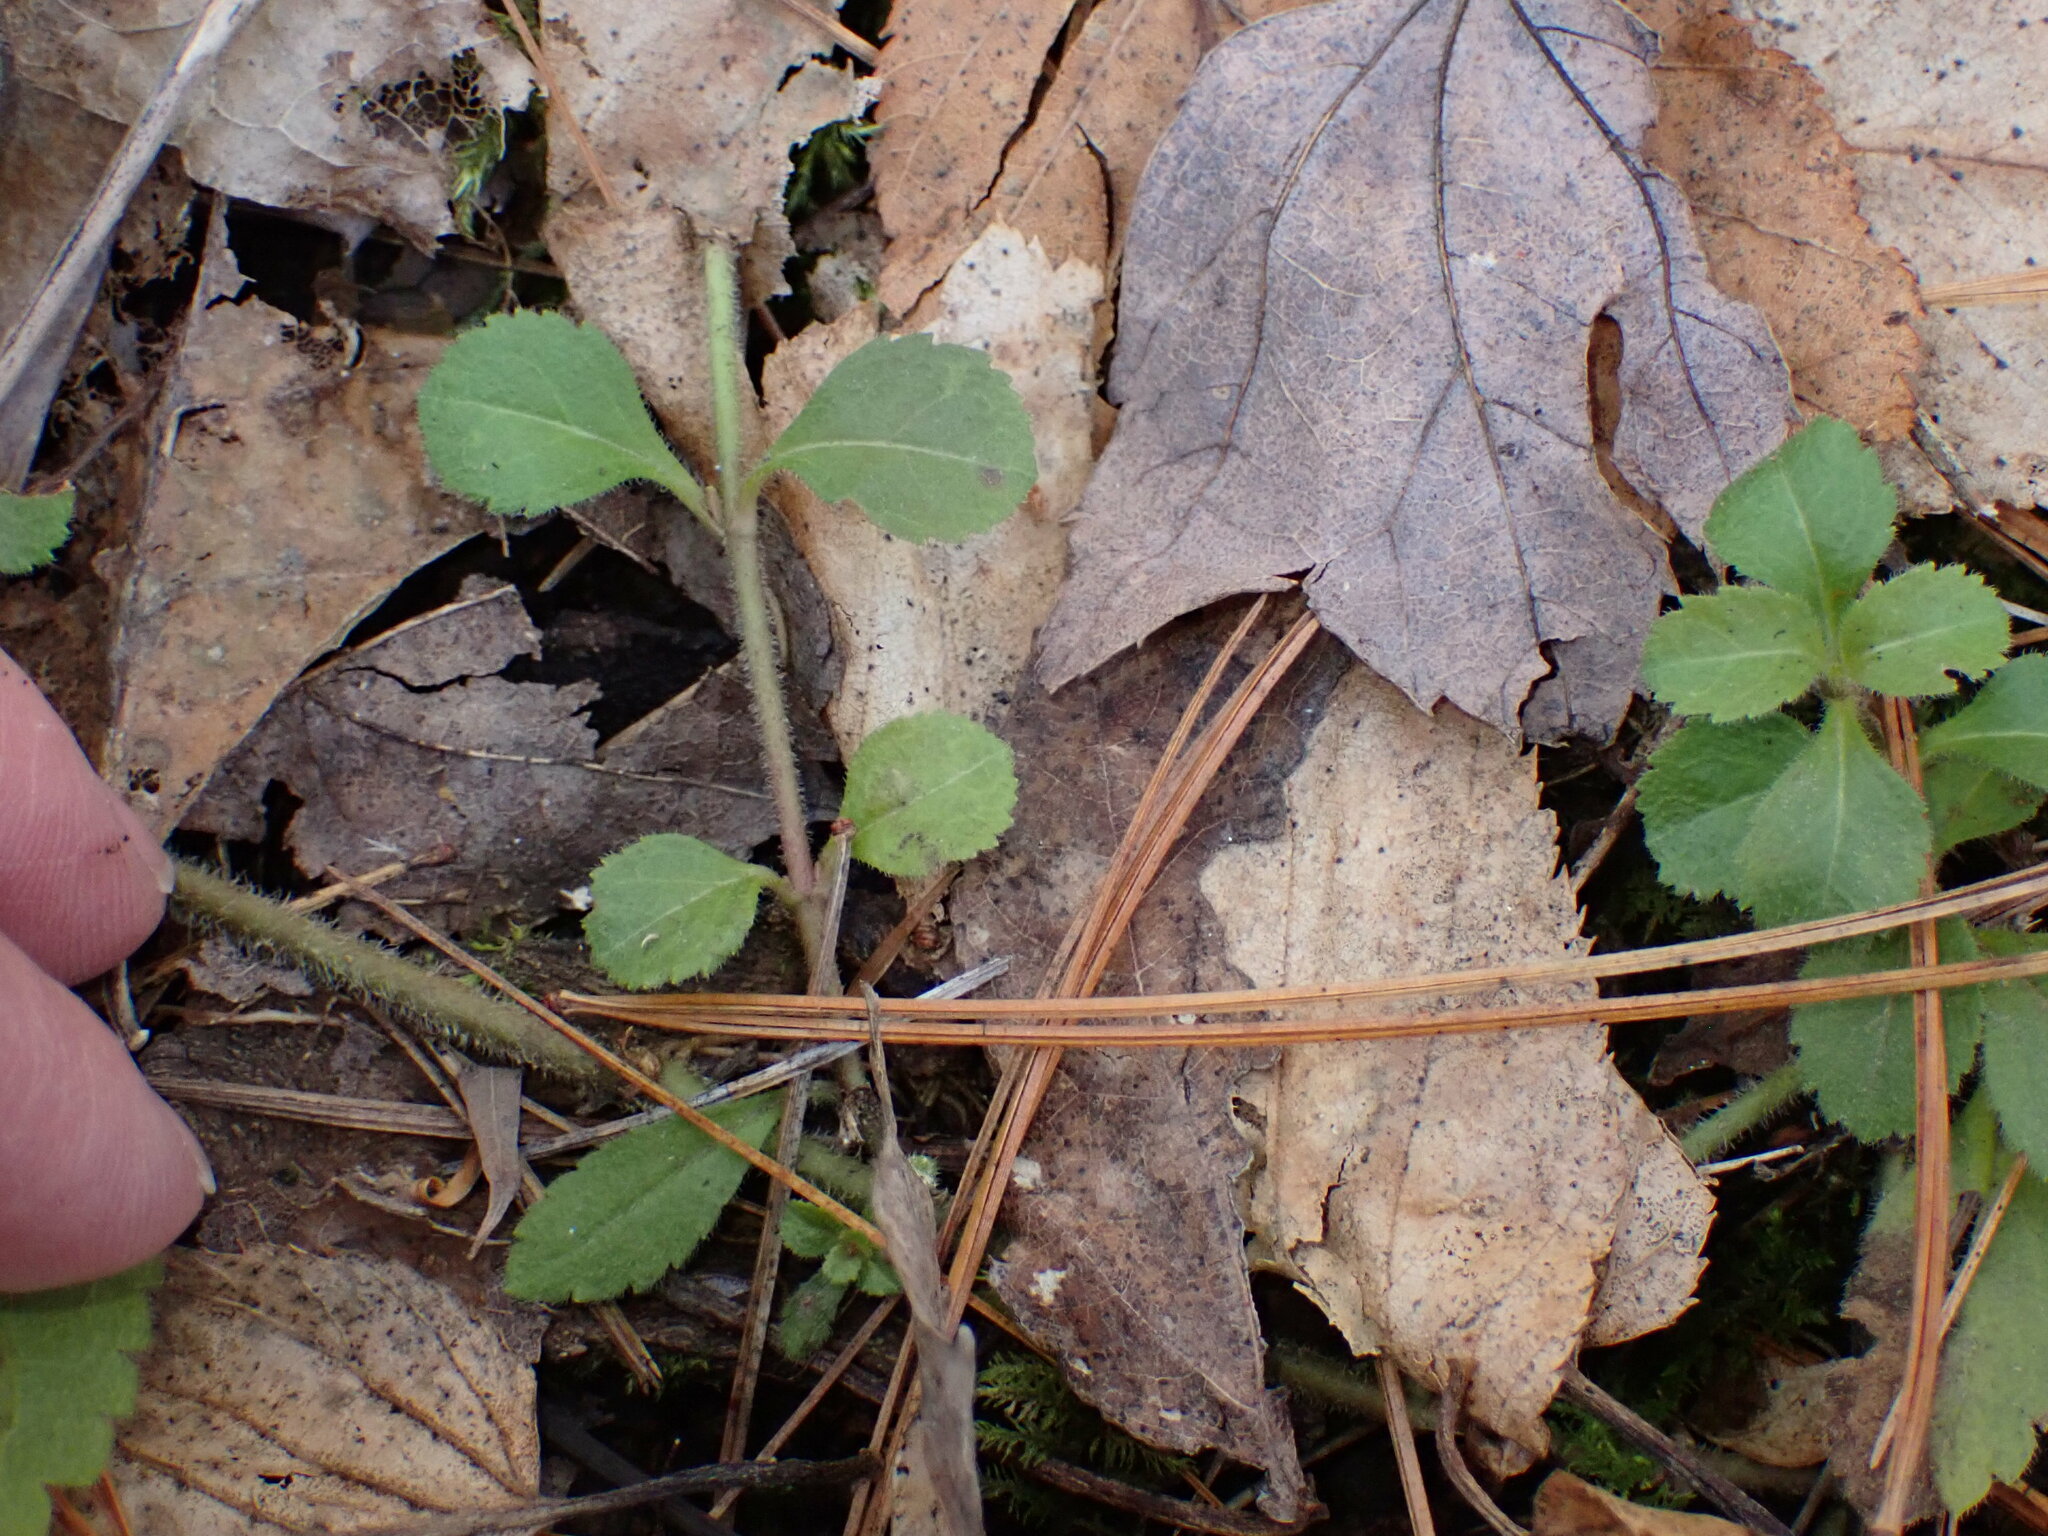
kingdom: Plantae
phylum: Tracheophyta
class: Magnoliopsida
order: Lamiales
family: Plantaginaceae
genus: Veronica
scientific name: Veronica officinalis
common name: Common speedwell
